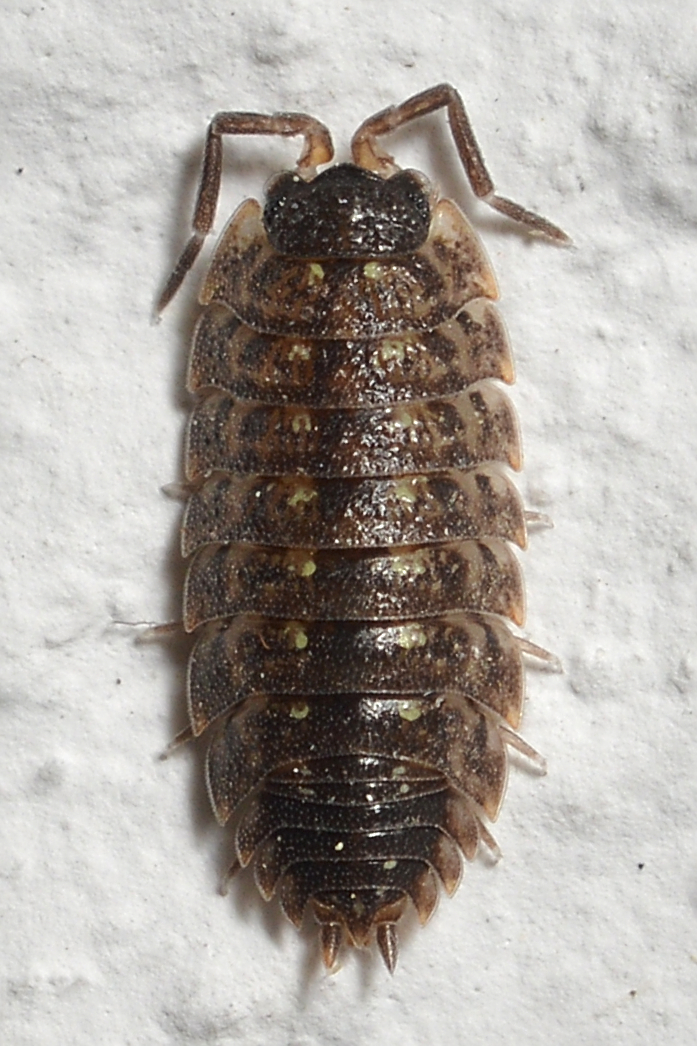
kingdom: Animalia
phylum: Arthropoda
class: Malacostraca
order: Isopoda
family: Porcellionidae
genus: Porcellio
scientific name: Porcellio spinicornis
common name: Painted woodlouse
